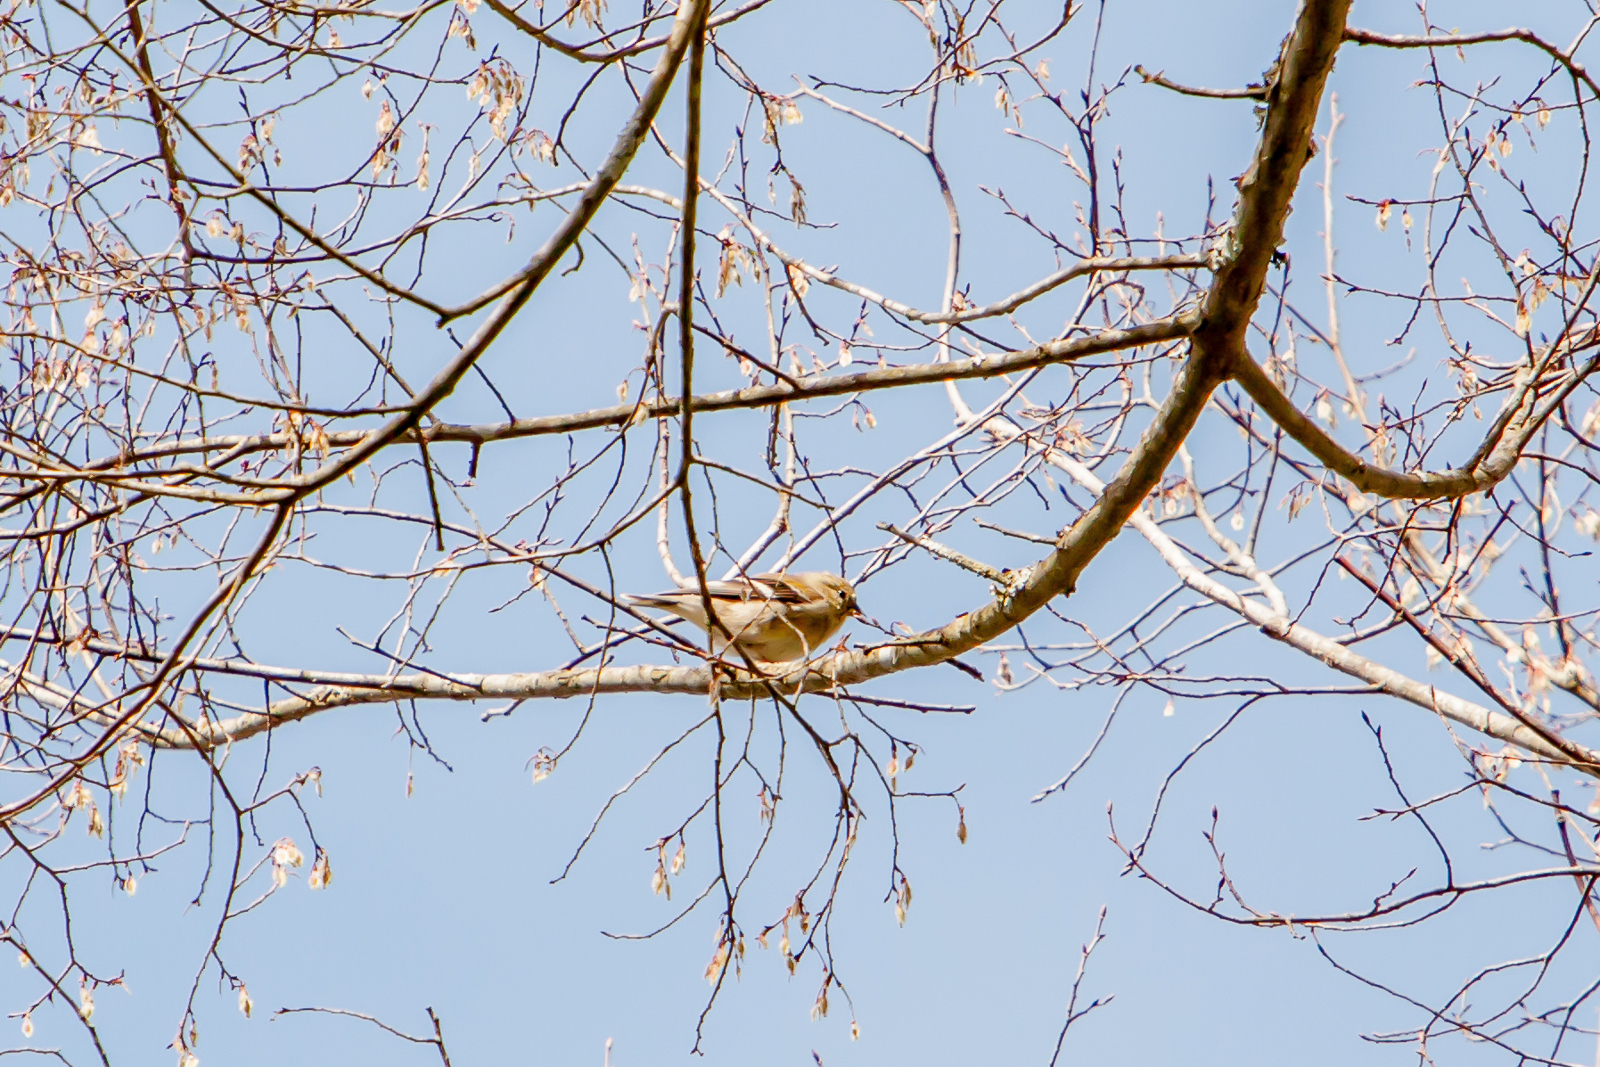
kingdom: Animalia
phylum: Chordata
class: Aves
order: Passeriformes
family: Fringillidae
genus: Spinus
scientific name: Spinus tristis
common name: American goldfinch
